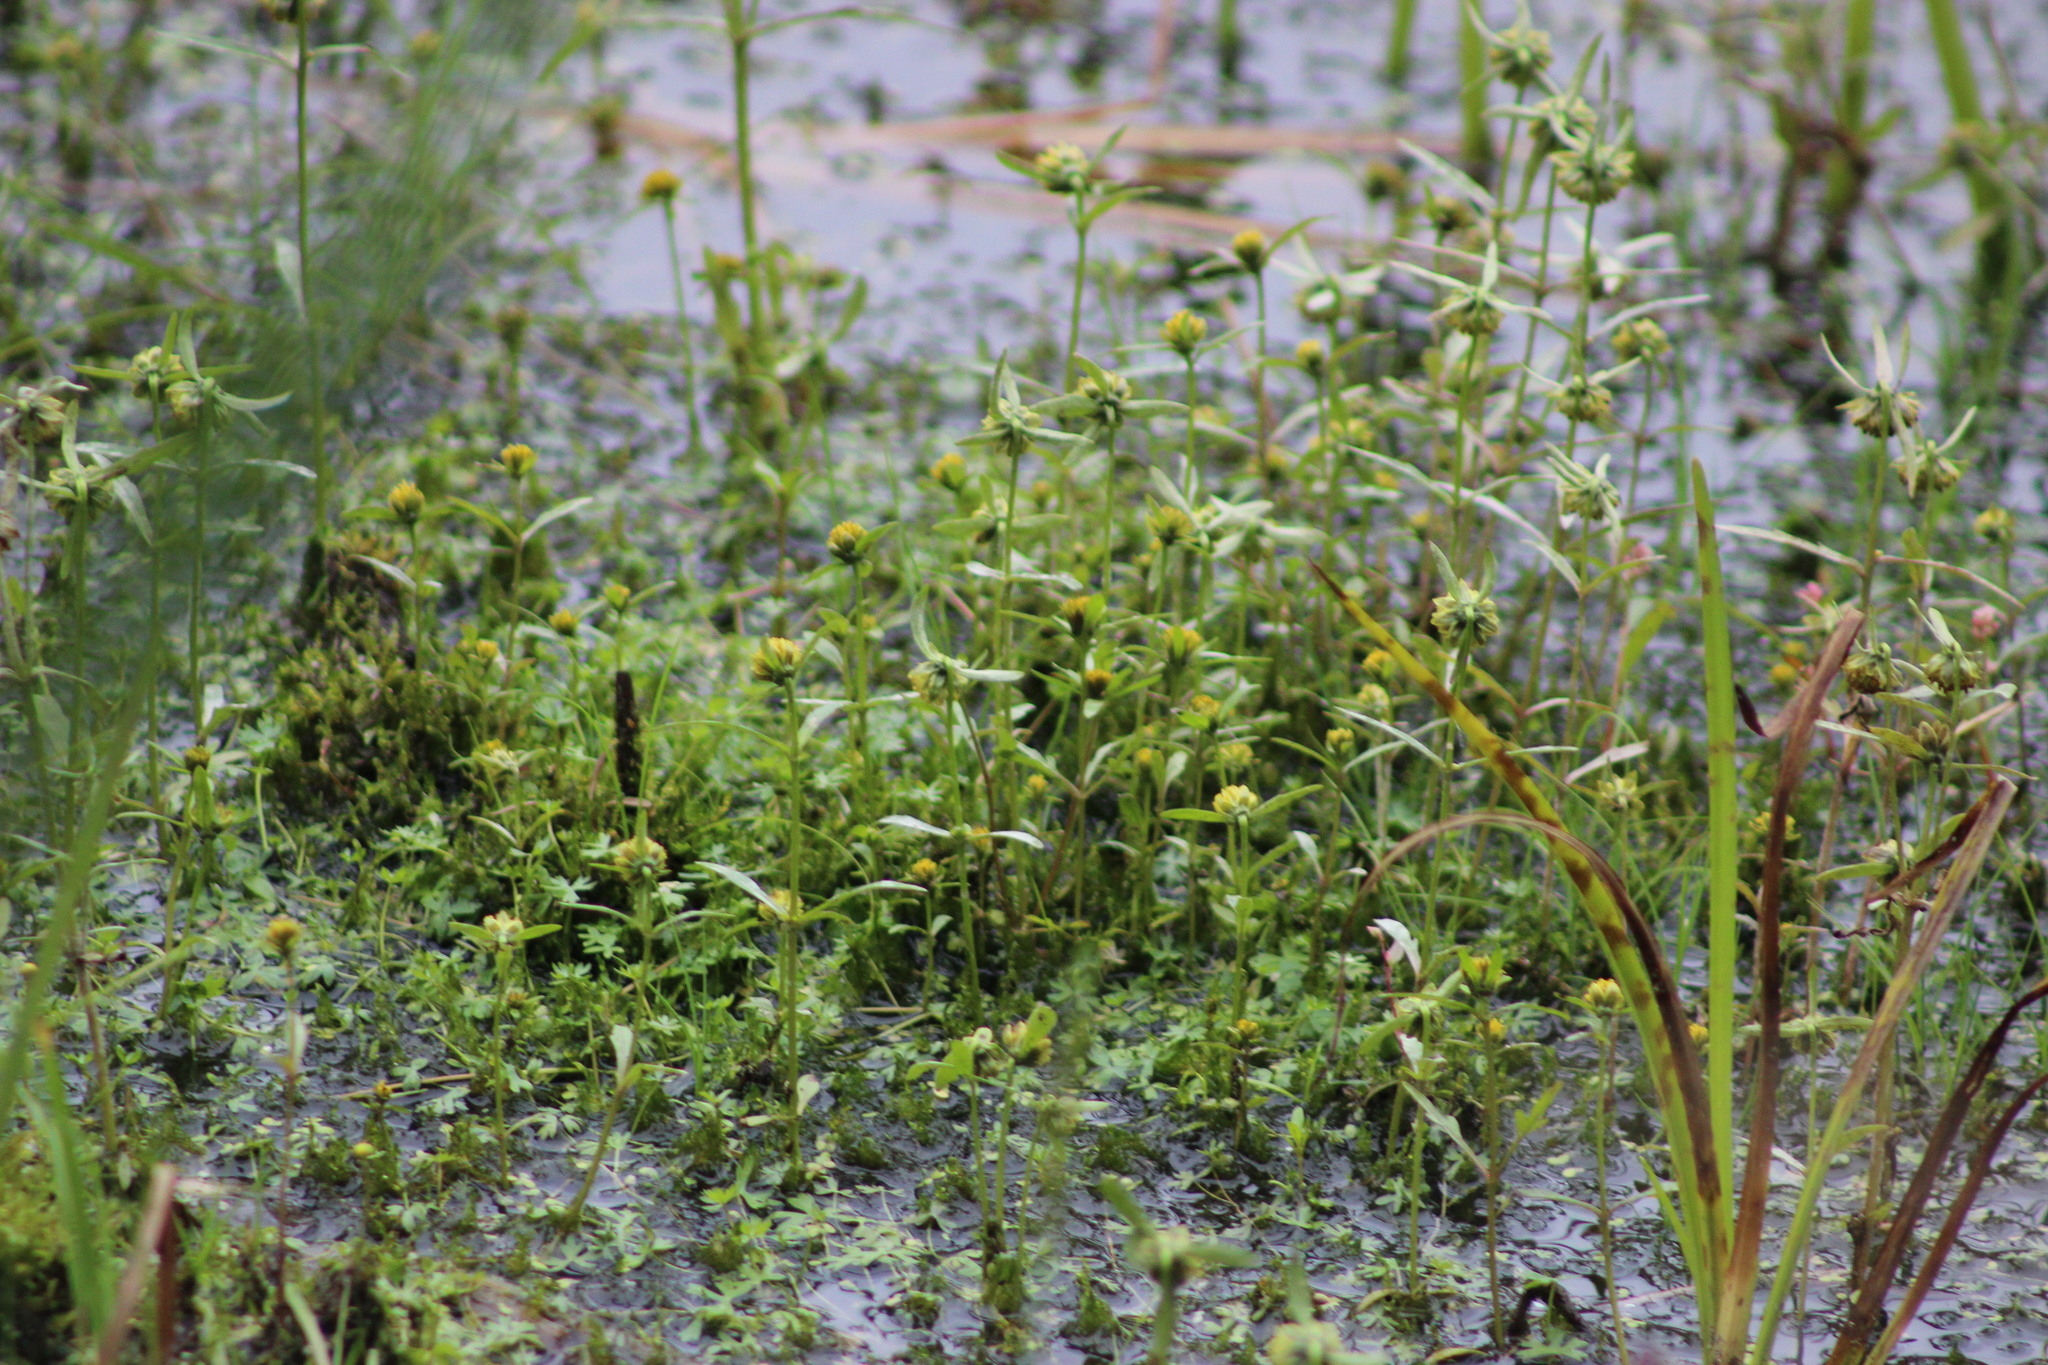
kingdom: Plantae
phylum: Tracheophyta
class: Magnoliopsida
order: Asterales
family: Asteraceae
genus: Bidens
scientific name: Bidens cernua
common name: Nodding bur-marigold
